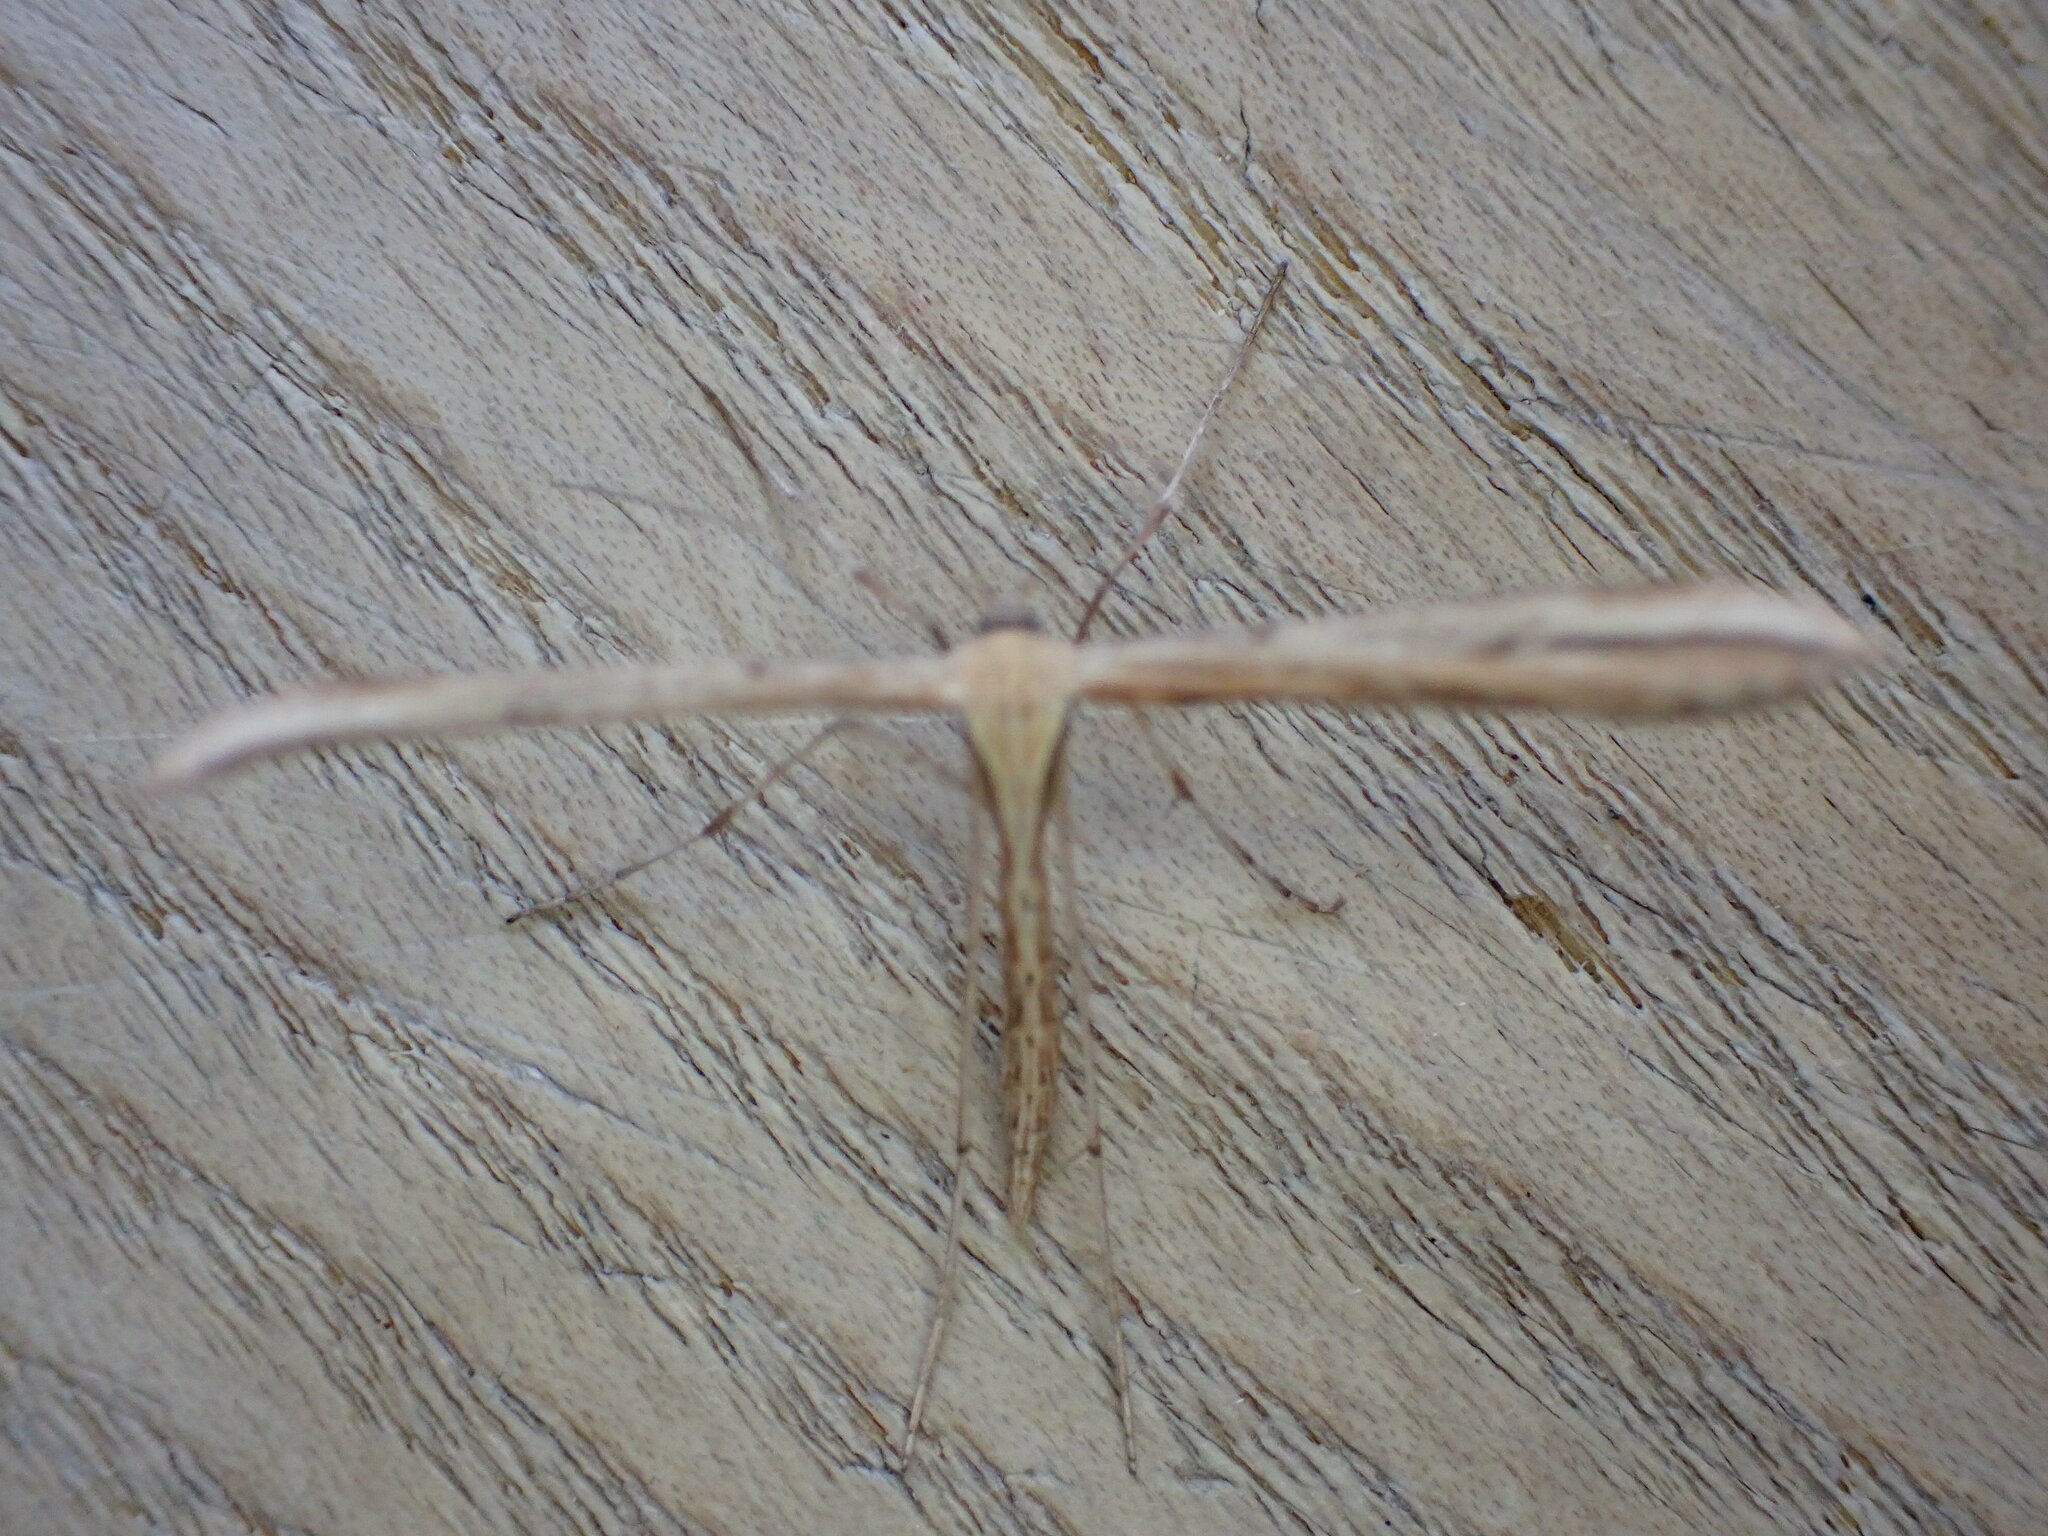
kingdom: Animalia
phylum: Arthropoda
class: Insecta
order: Lepidoptera
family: Pterophoridae
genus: Emmelina
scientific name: Emmelina monodactyla
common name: Common plume
